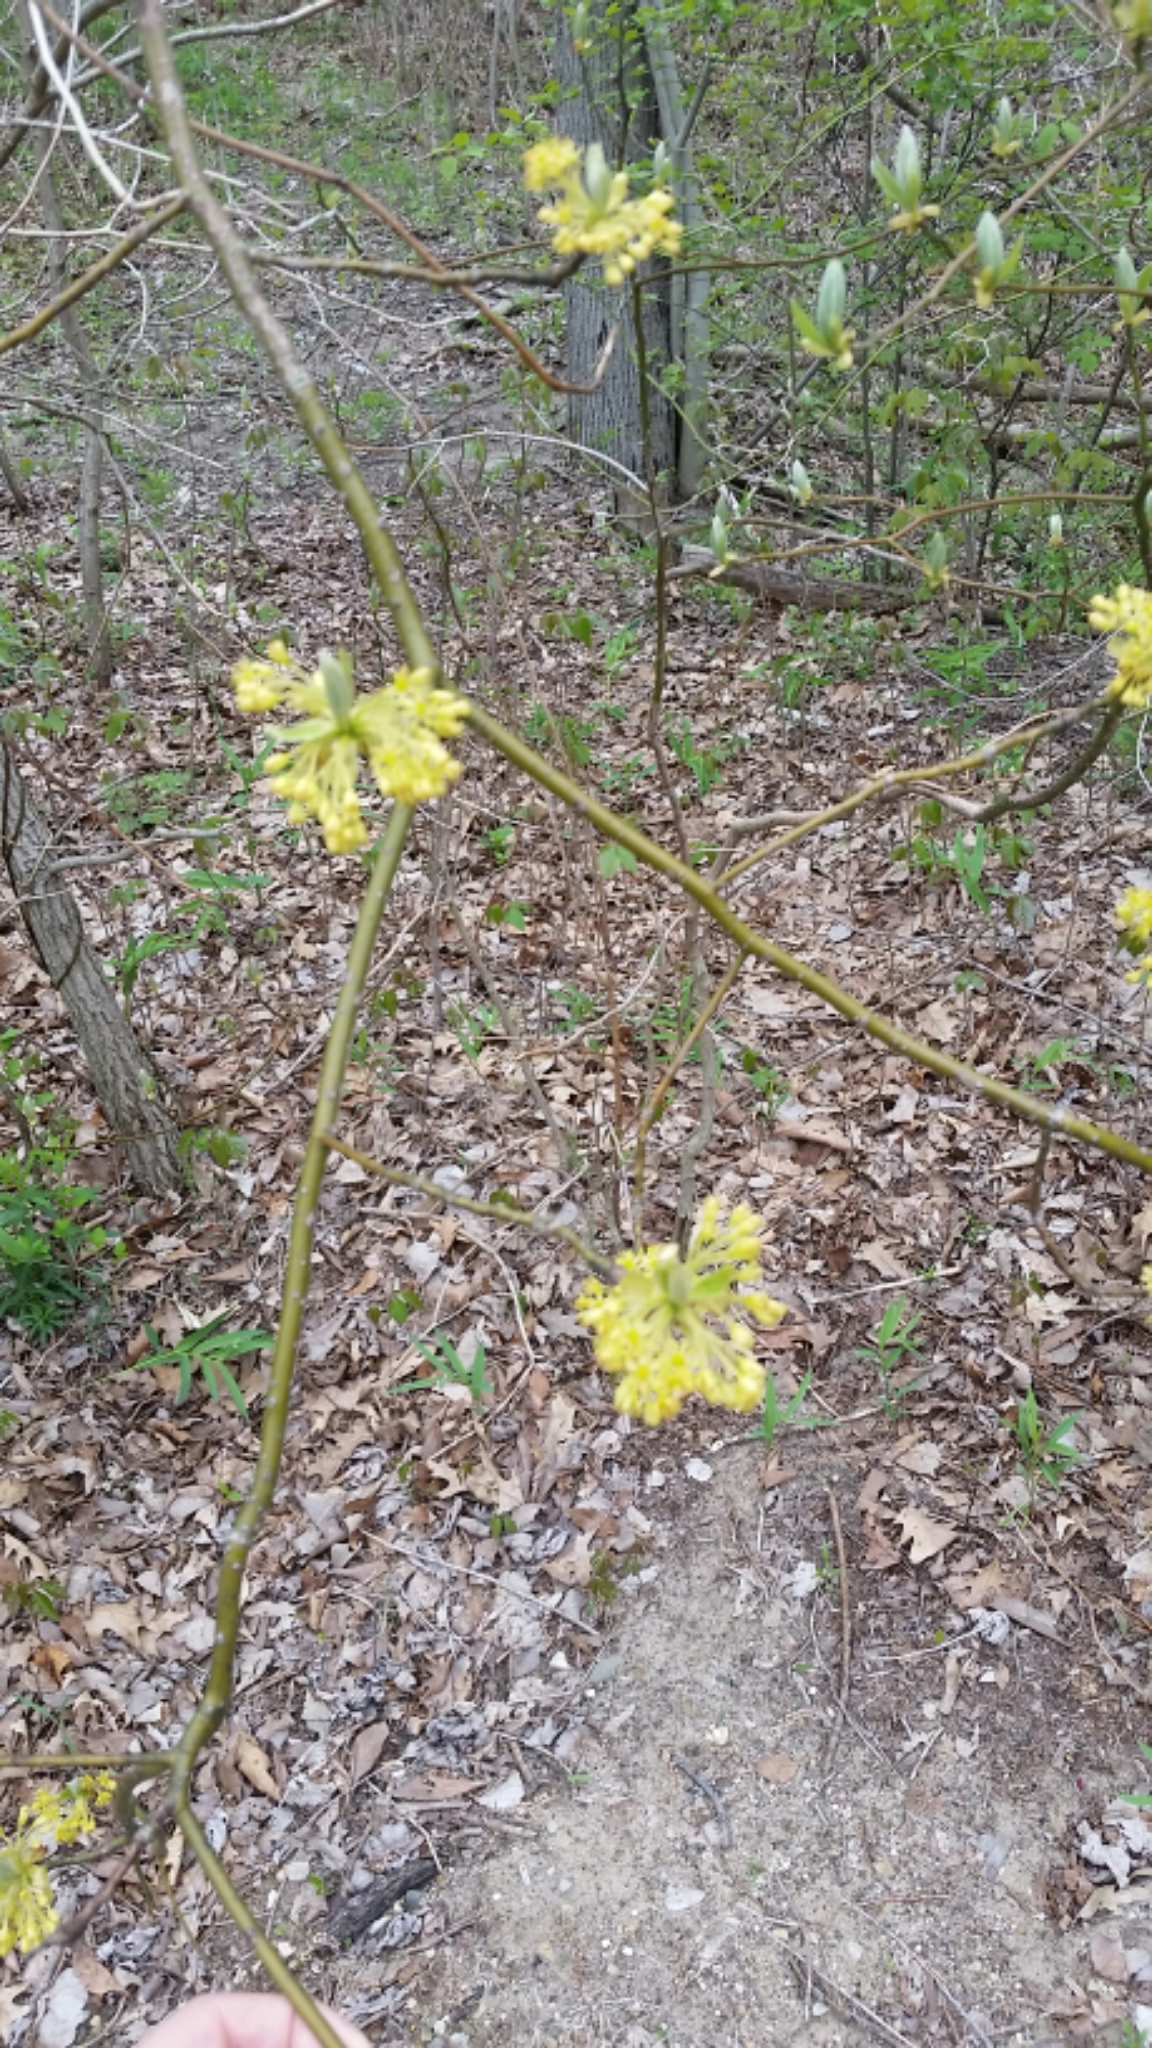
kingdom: Plantae
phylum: Tracheophyta
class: Magnoliopsida
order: Laurales
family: Lauraceae
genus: Sassafras
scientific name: Sassafras albidum
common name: Sassafras
